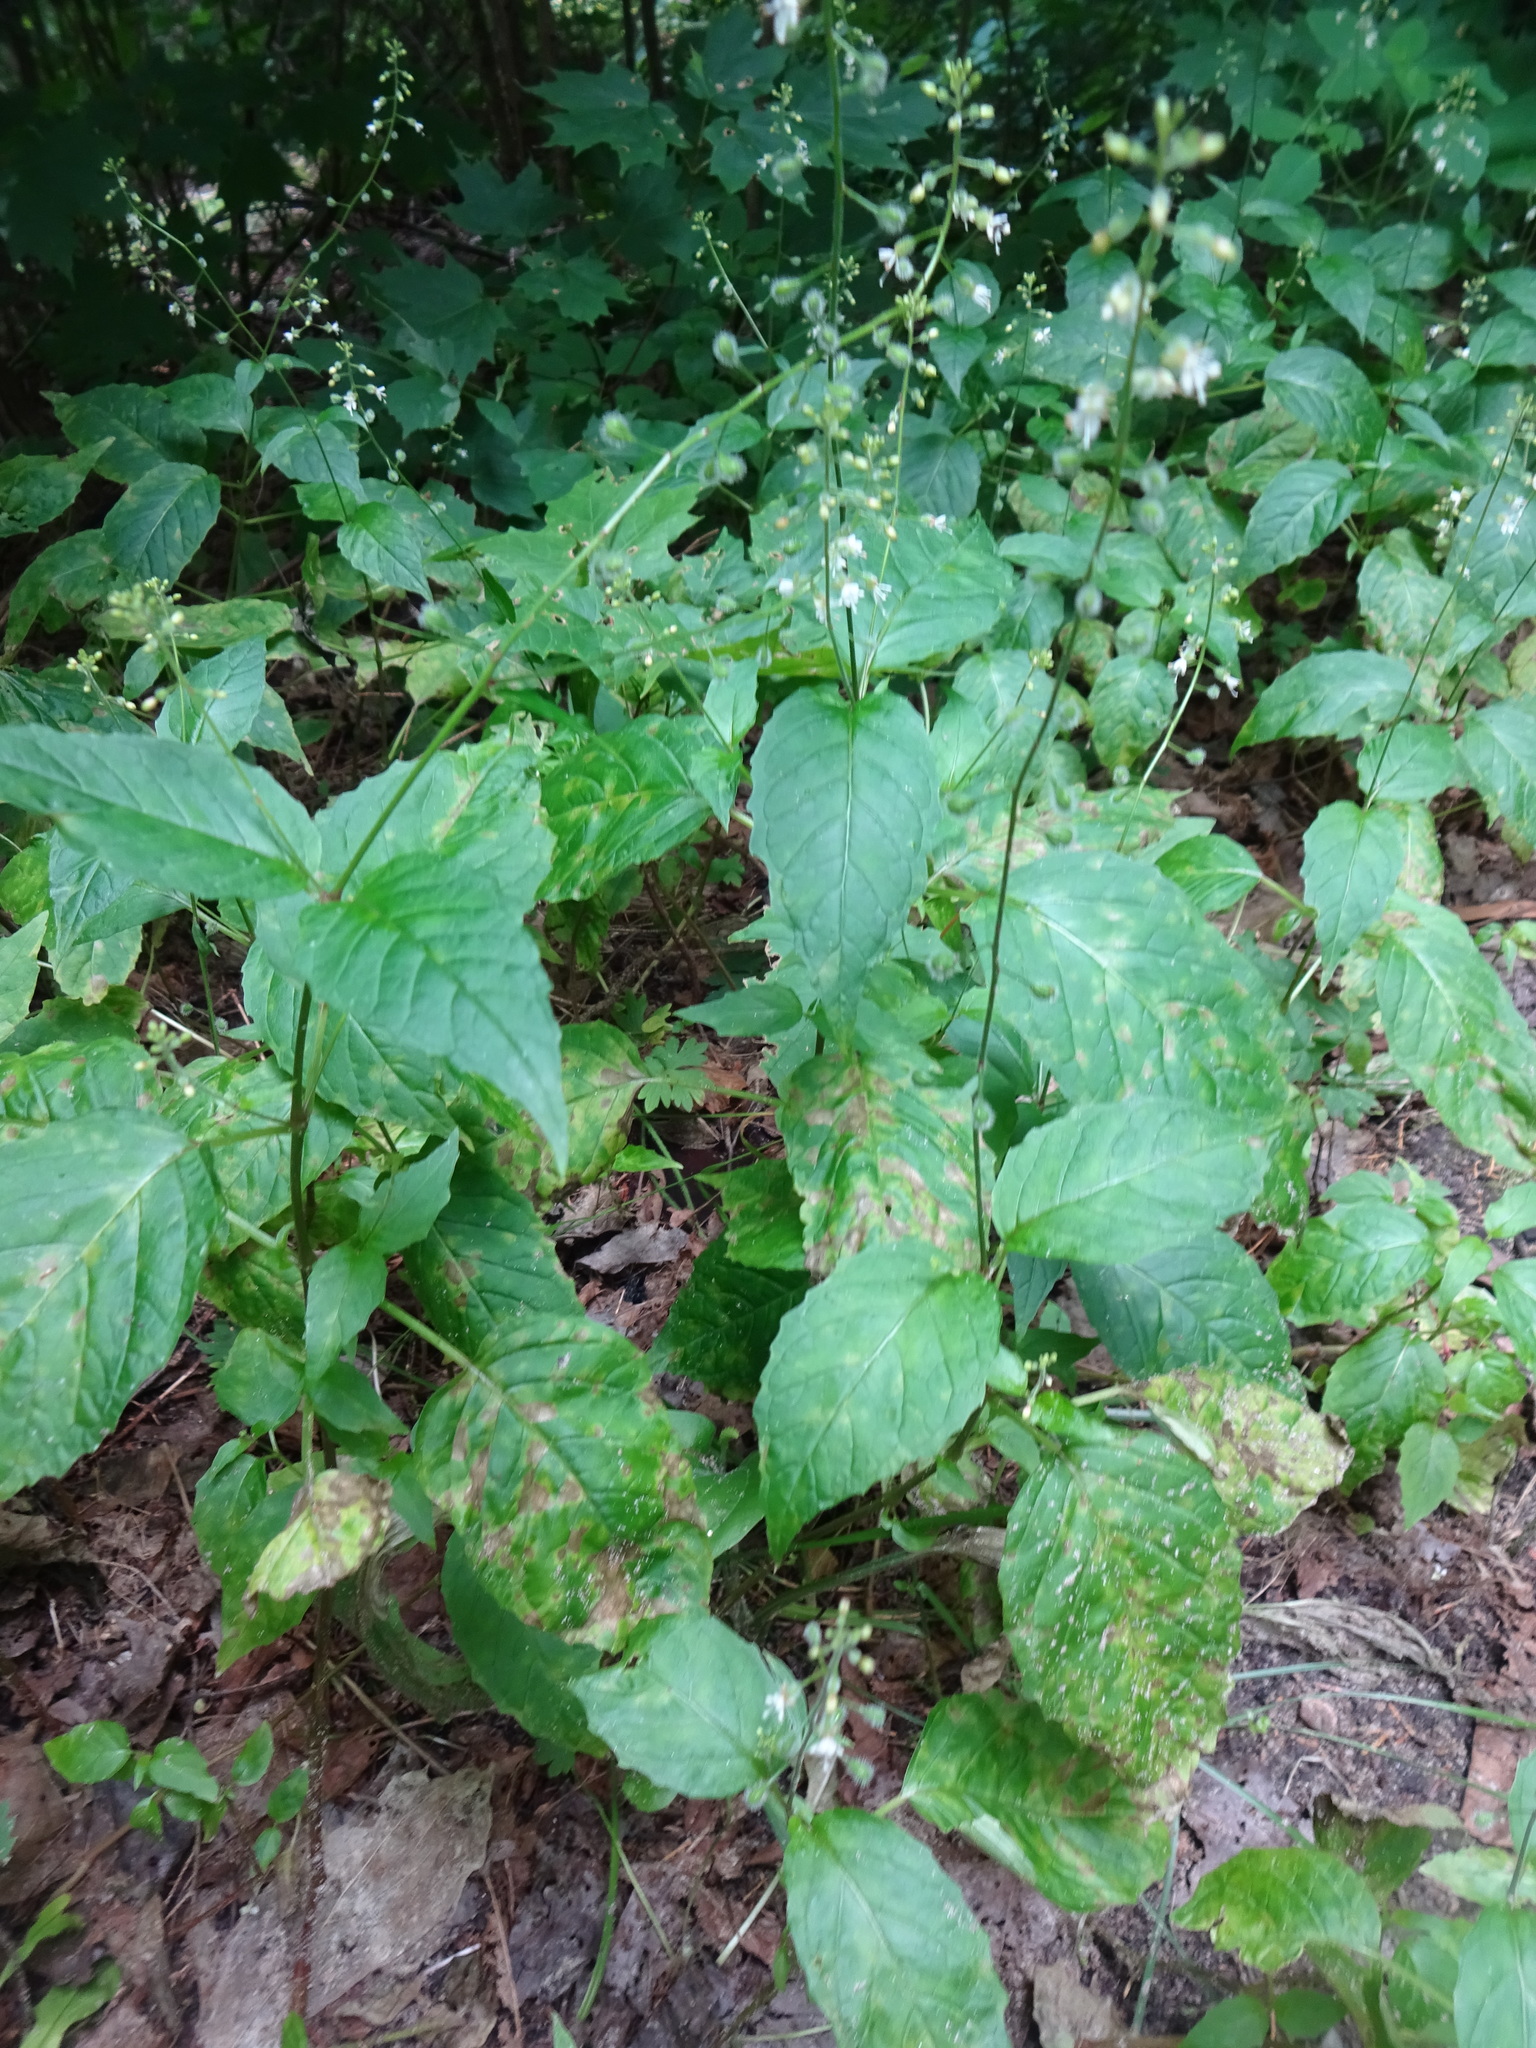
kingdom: Plantae
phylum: Tracheophyta
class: Magnoliopsida
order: Myrtales
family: Onagraceae
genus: Circaea
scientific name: Circaea canadensis
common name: Broad-leaved enchanter's nightshade
